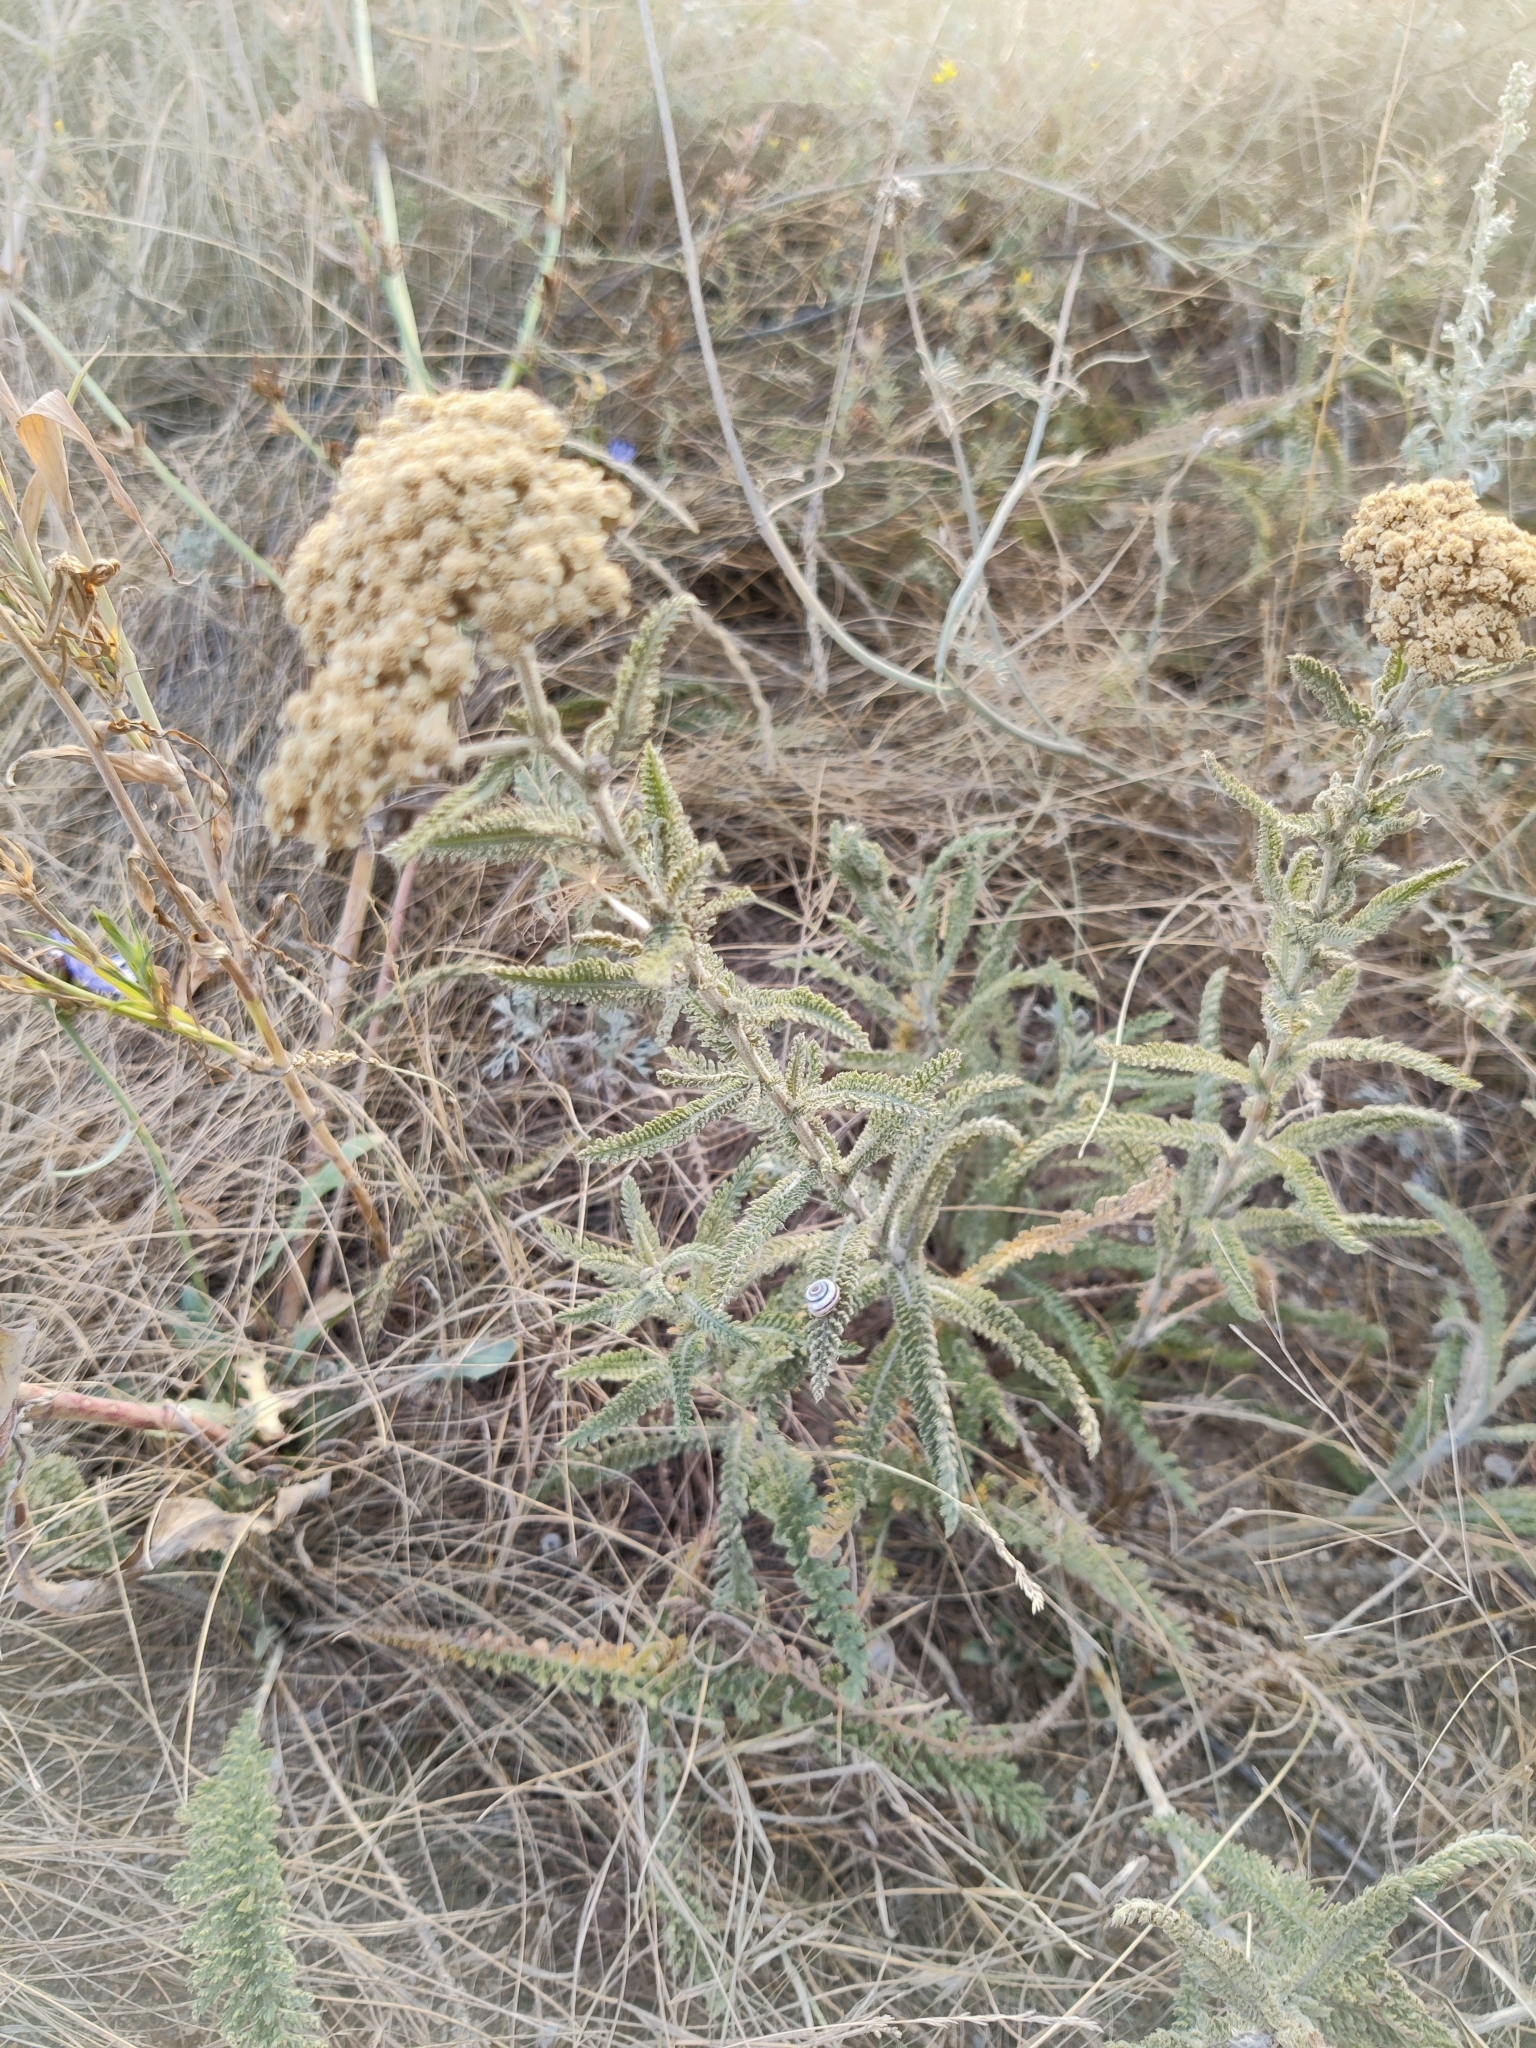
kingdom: Plantae
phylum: Tracheophyta
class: Magnoliopsida
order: Asterales
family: Asteraceae
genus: Achillea
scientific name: Achillea setacea
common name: Bristly yarrow
